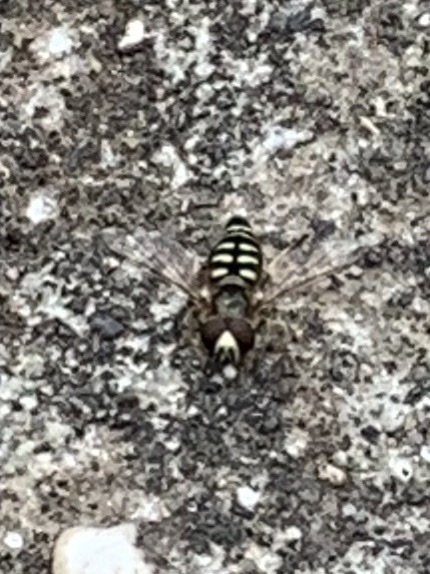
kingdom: Animalia
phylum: Arthropoda
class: Insecta
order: Diptera
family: Syrphidae
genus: Eupeodes
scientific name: Eupeodes volucris
